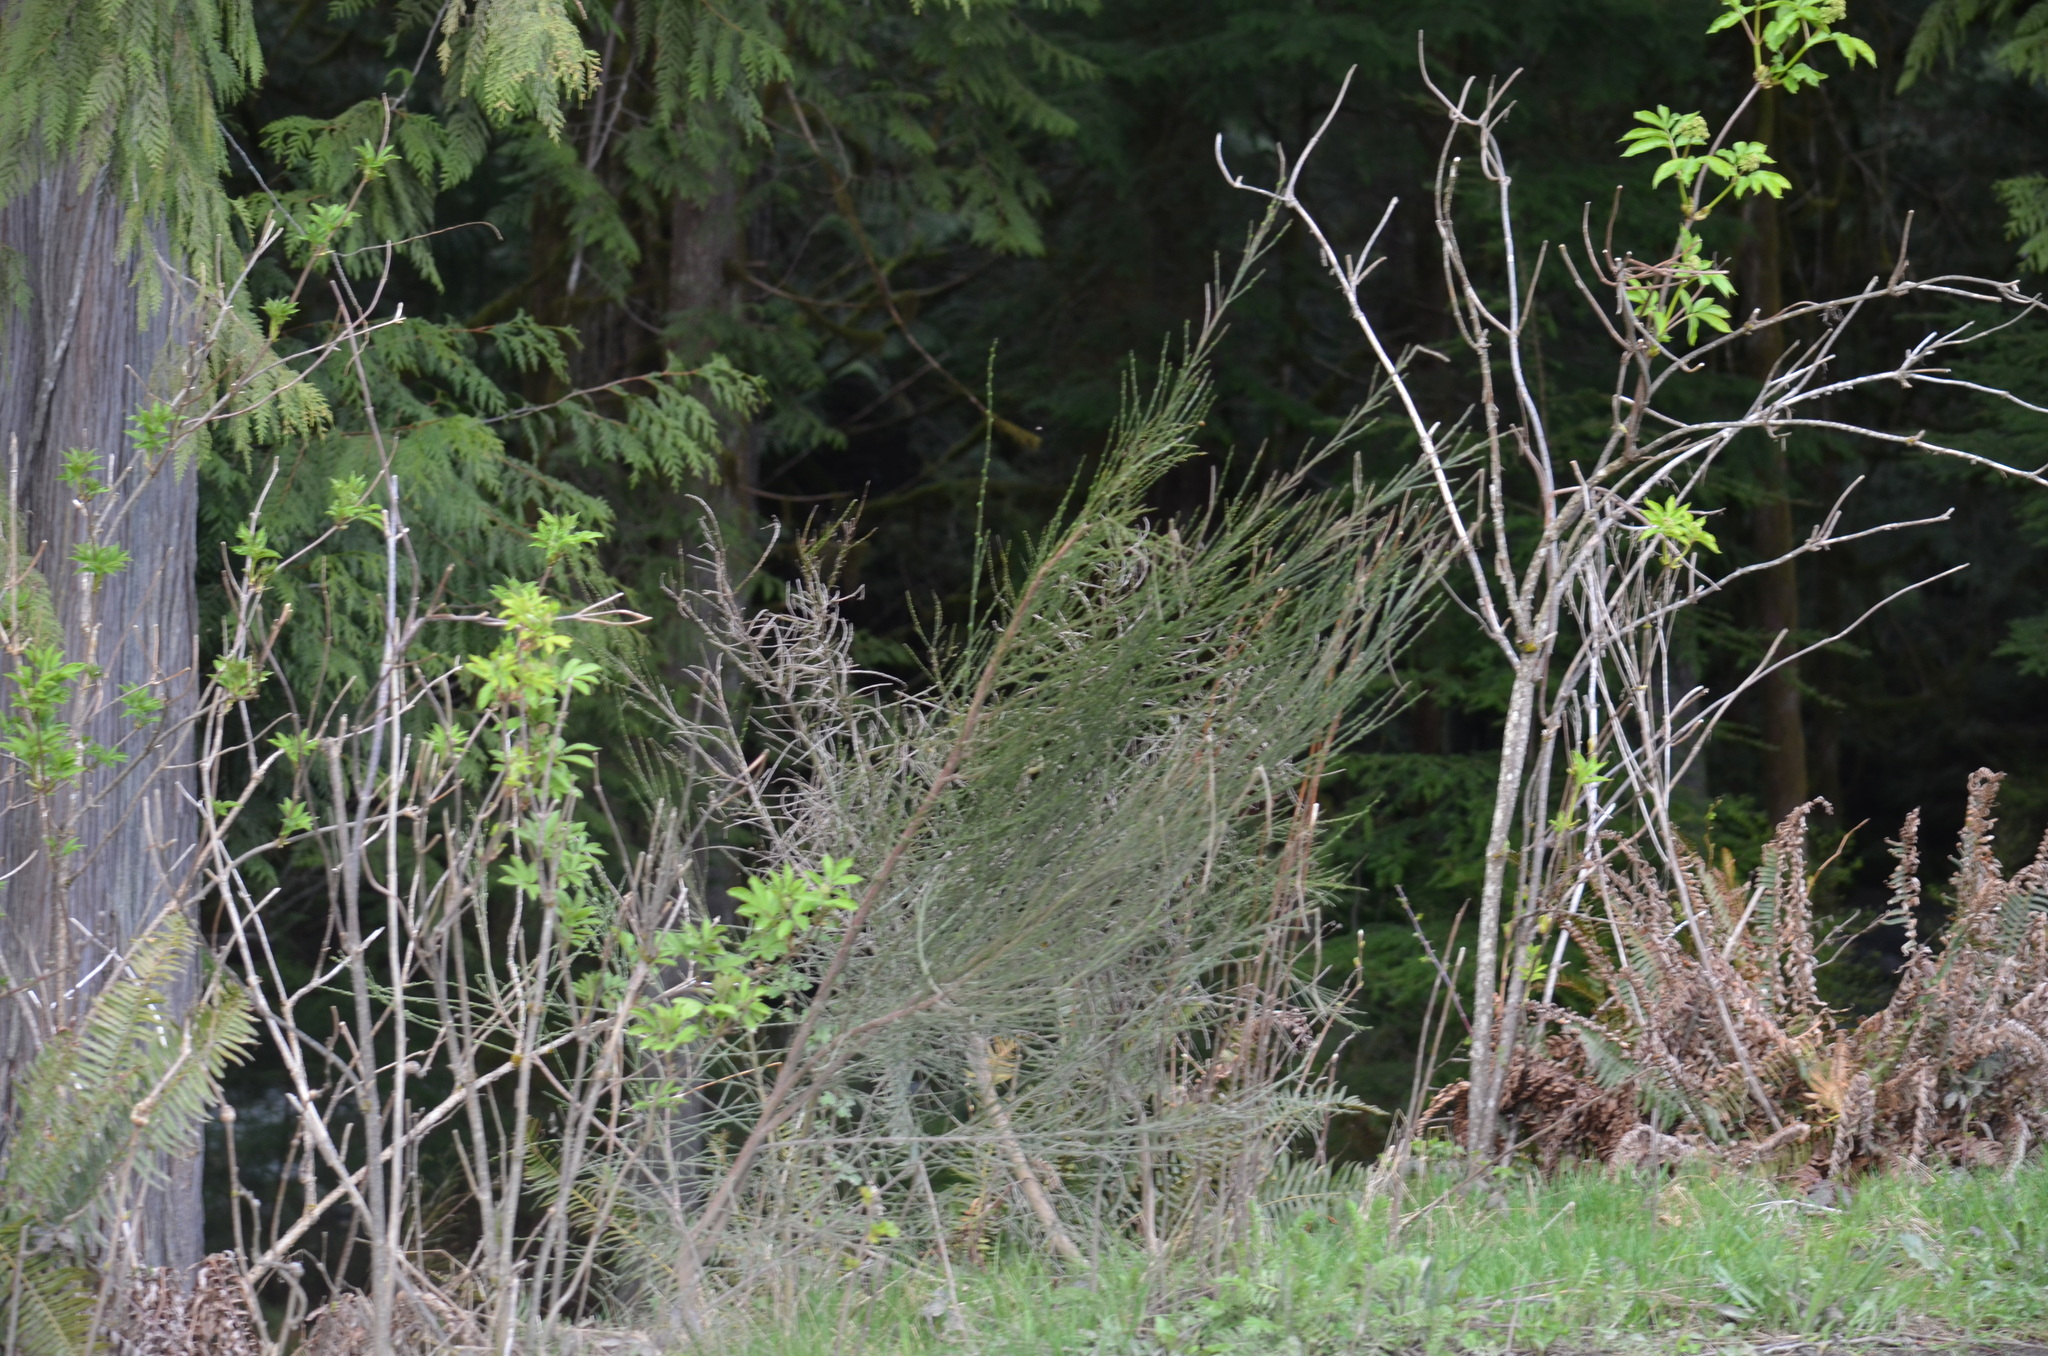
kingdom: Plantae
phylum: Tracheophyta
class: Magnoliopsida
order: Fabales
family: Fabaceae
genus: Cytisus
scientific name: Cytisus scoparius
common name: Scotch broom
